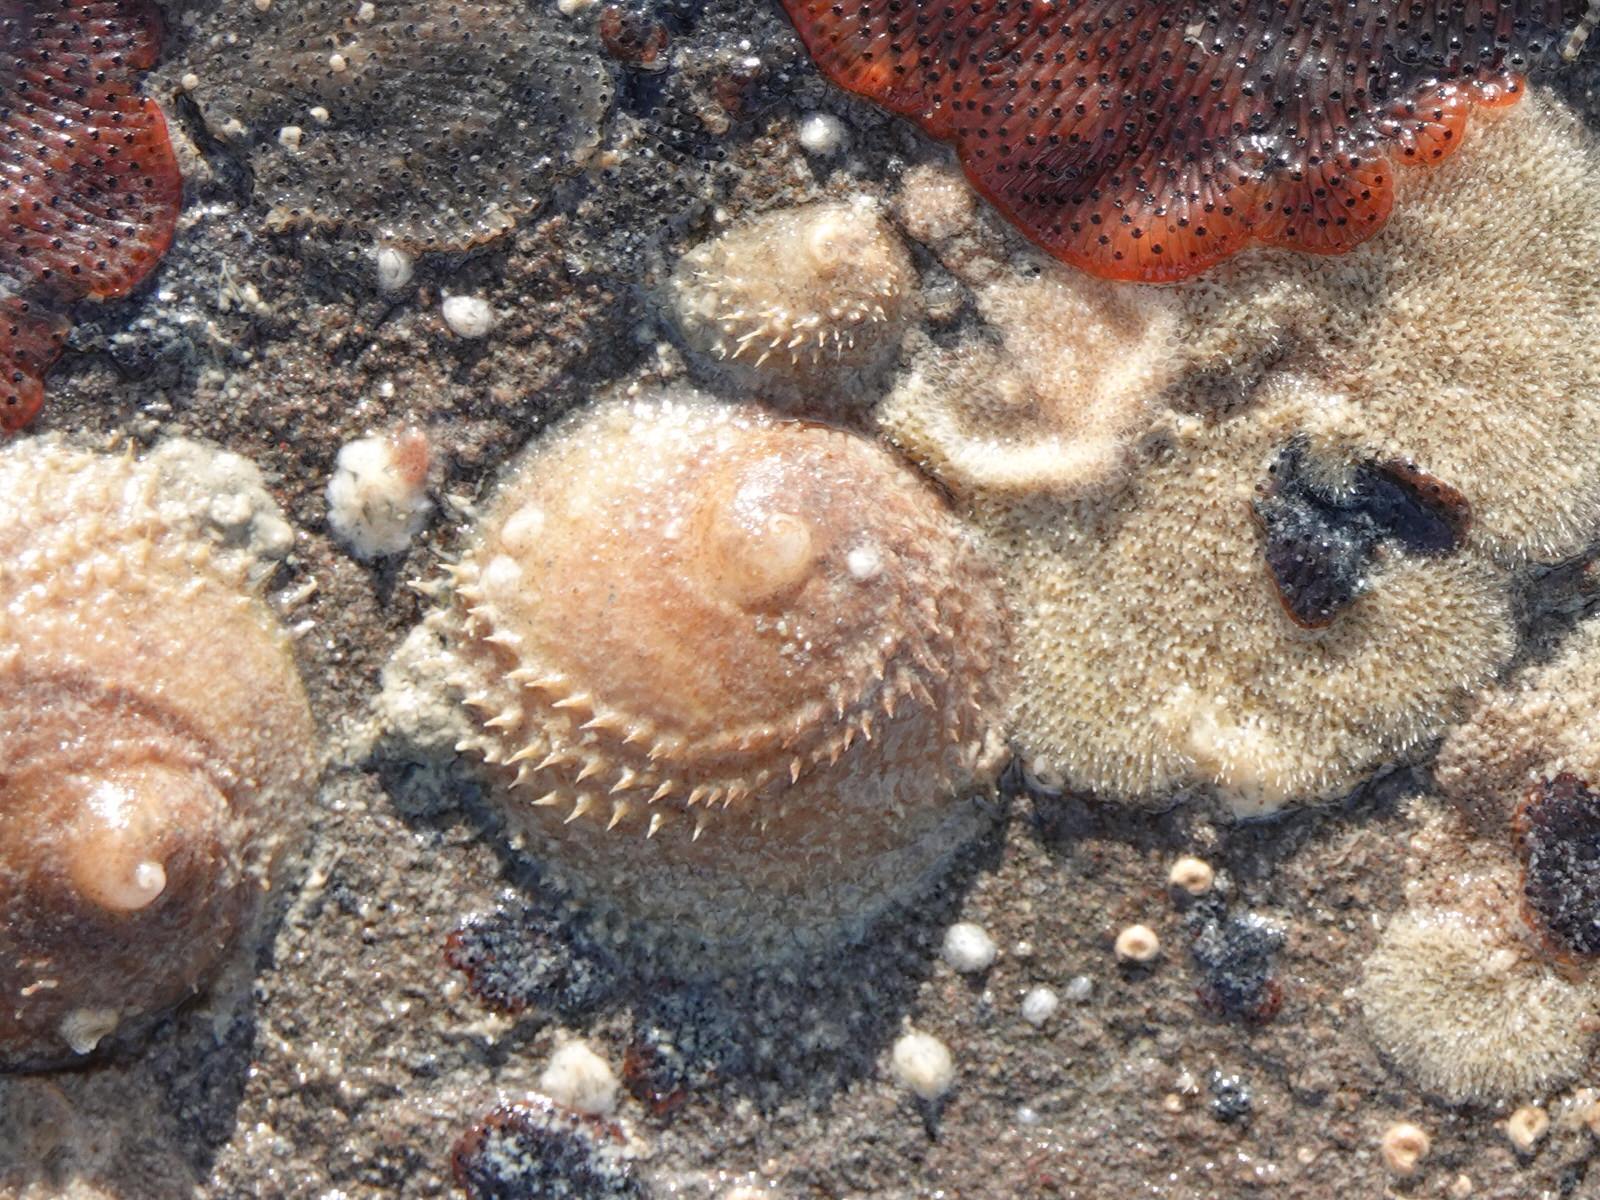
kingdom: Animalia
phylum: Mollusca
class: Gastropoda
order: Littorinimorpha
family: Calyptraeidae
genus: Sigapatella
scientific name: Sigapatella novaezelandiae
